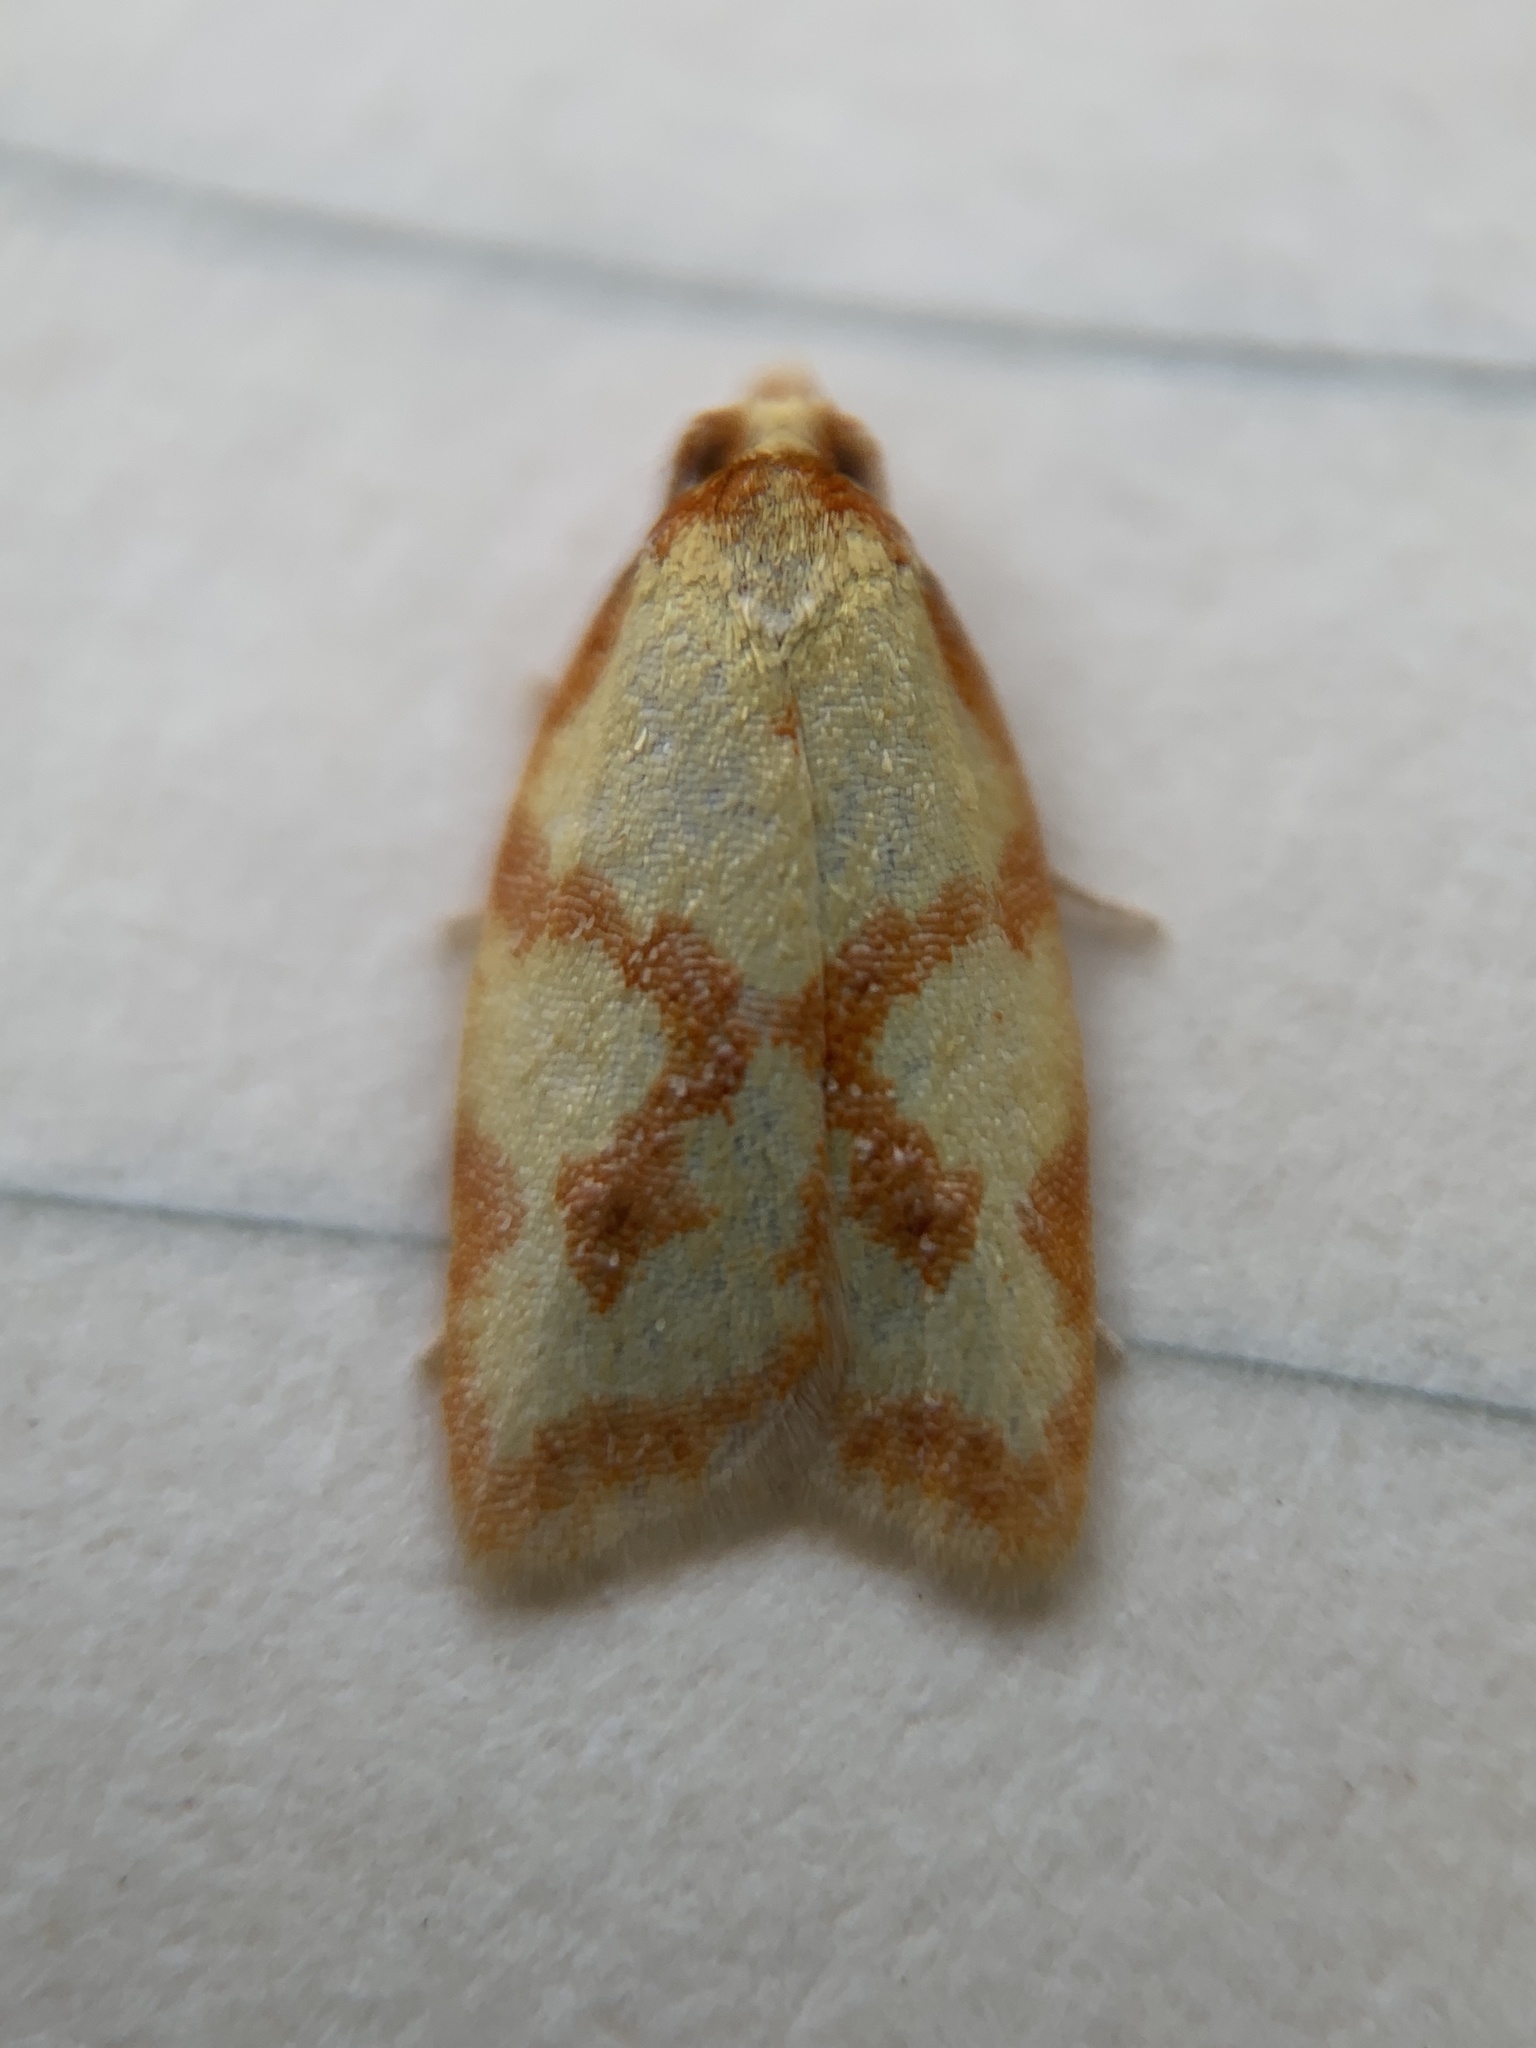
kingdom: Animalia
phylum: Arthropoda
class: Insecta
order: Lepidoptera
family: Tortricidae
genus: Sparganothis
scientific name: Sparganothis sulfureana
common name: Sparganothis fruitworm moth
